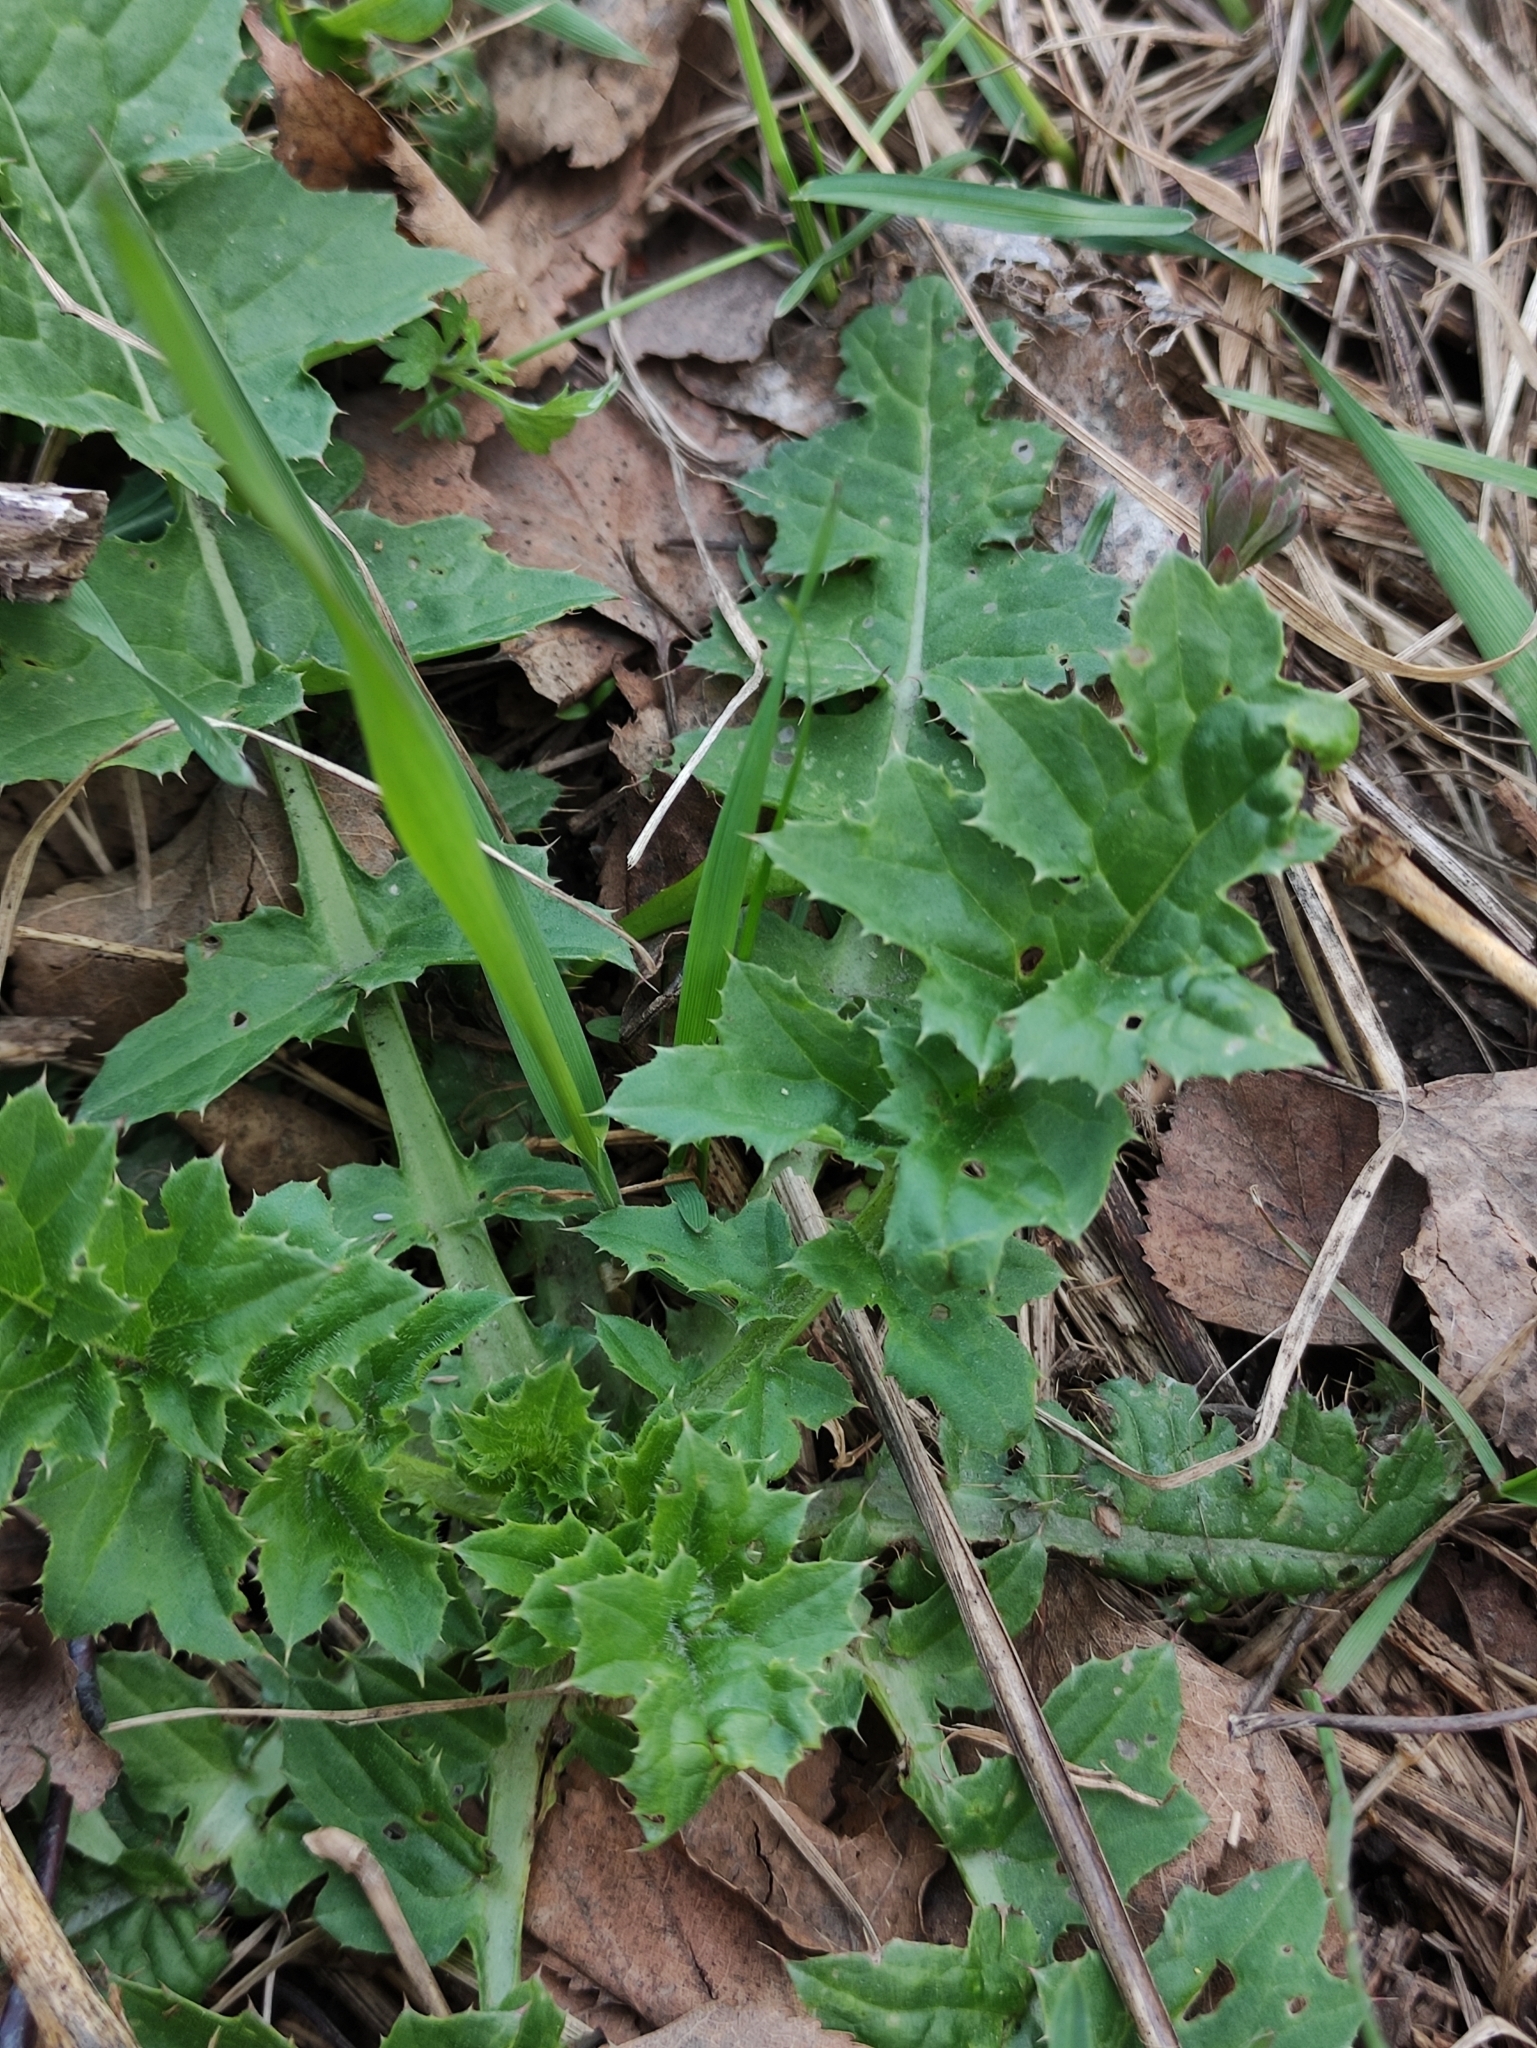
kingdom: Plantae
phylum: Tracheophyta
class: Magnoliopsida
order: Asterales
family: Asteraceae
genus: Carduus
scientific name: Carduus crispus
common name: Welted thistle
